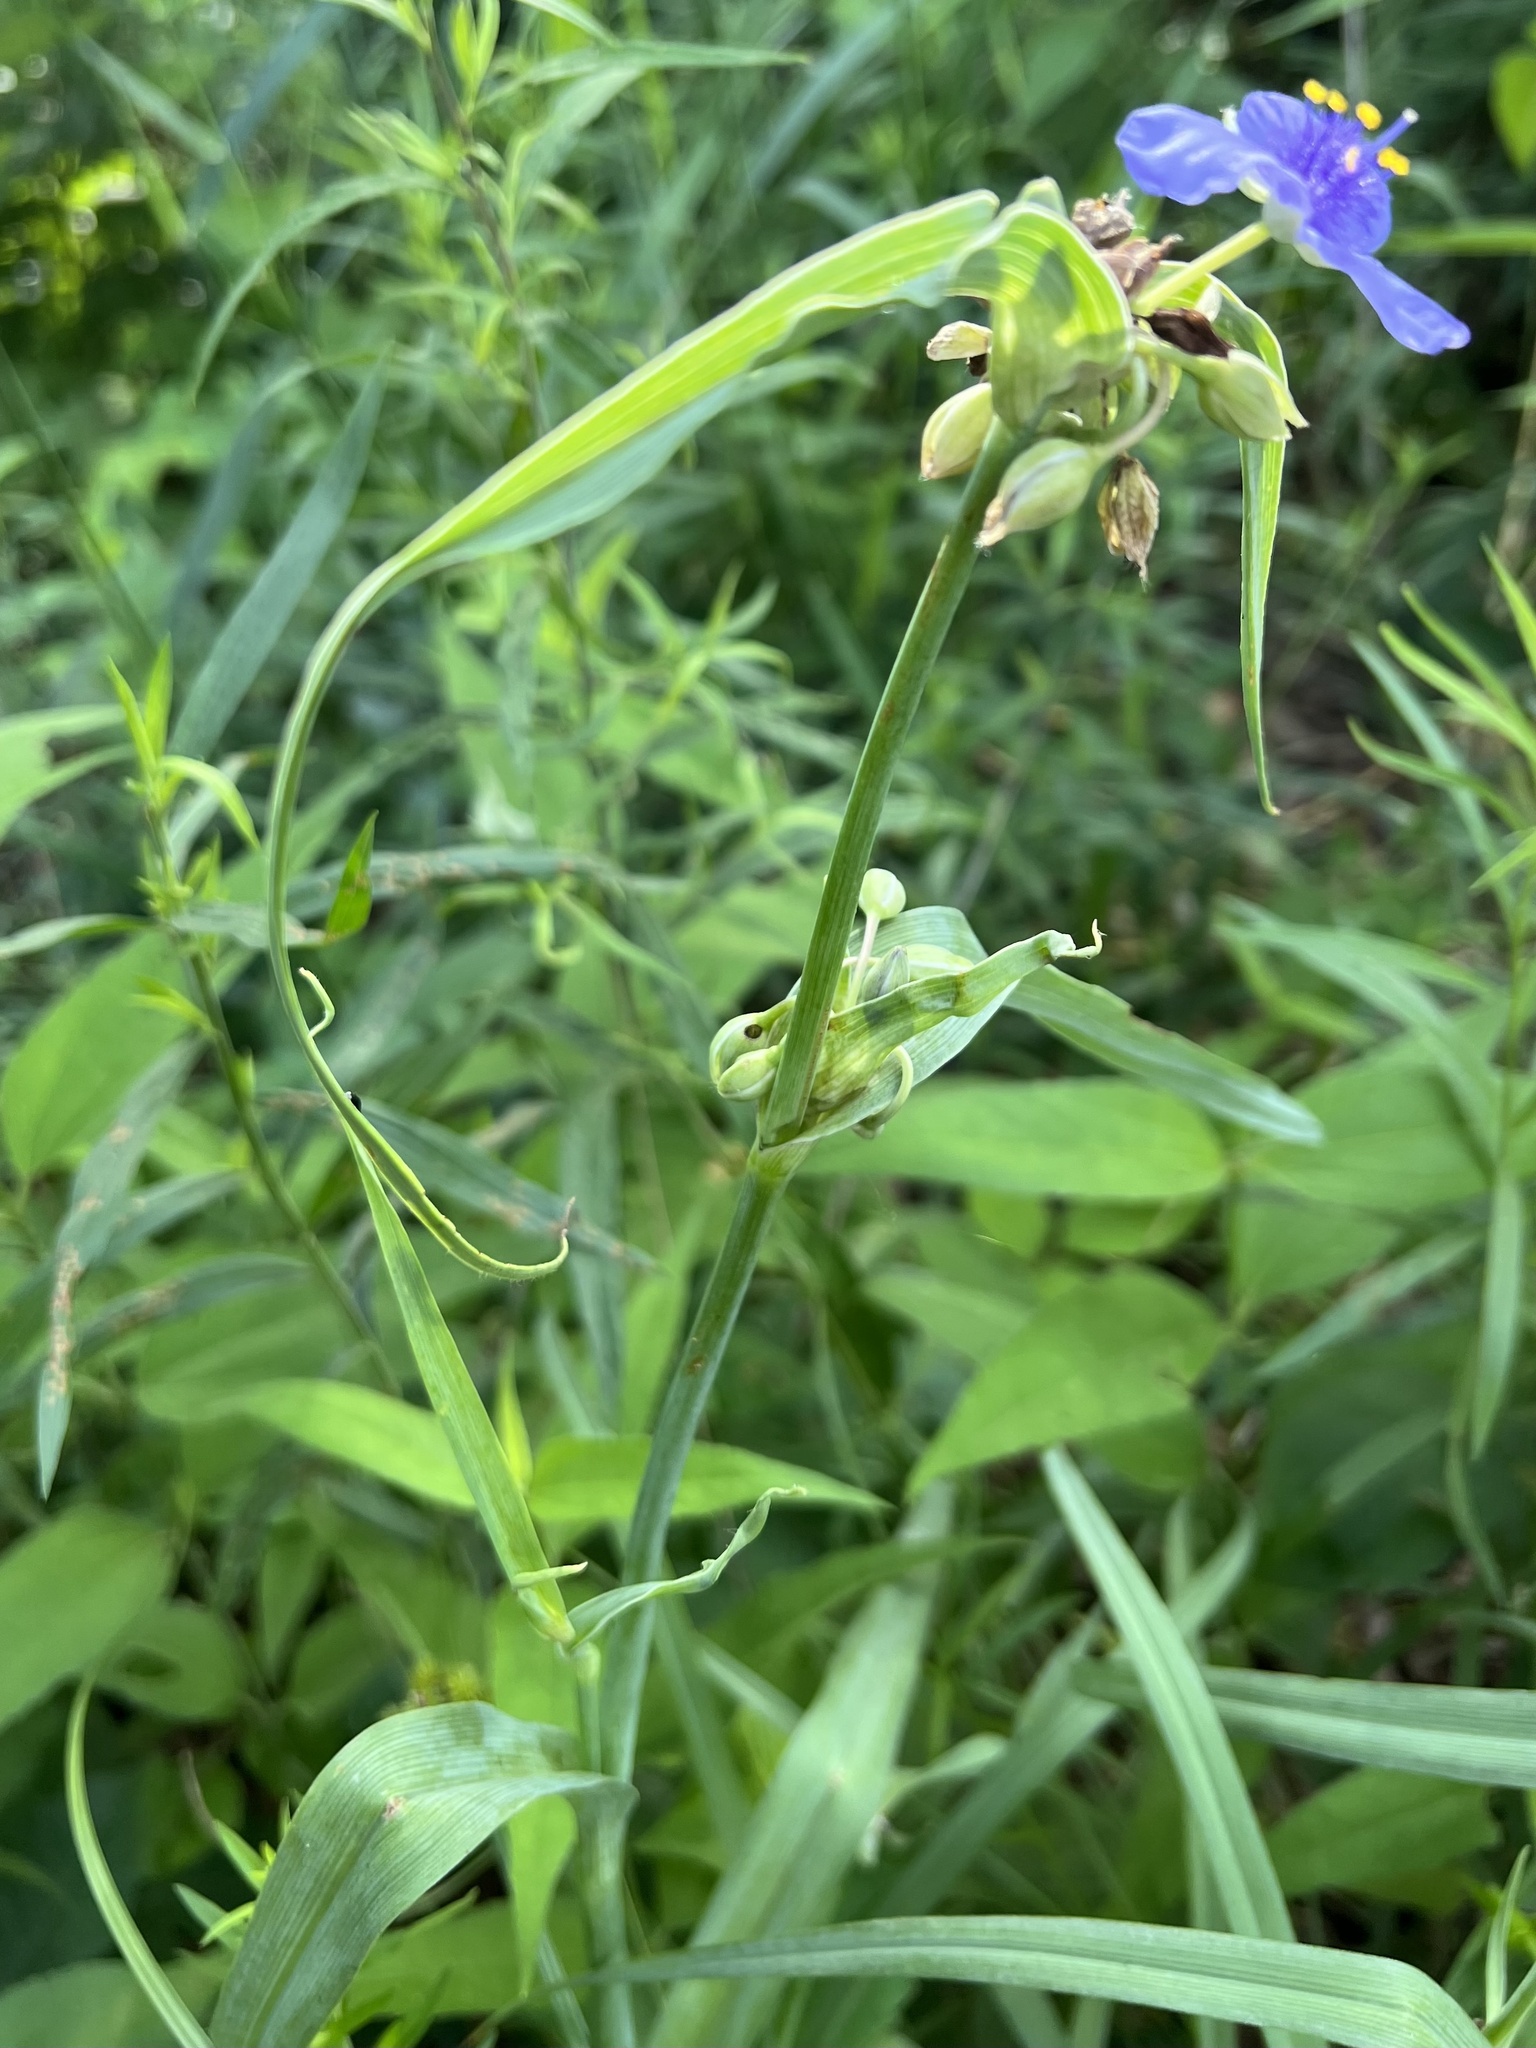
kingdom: Plantae
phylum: Tracheophyta
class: Liliopsida
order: Commelinales
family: Commelinaceae
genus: Tradescantia
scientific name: Tradescantia ohiensis
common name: Ohio spiderwort
